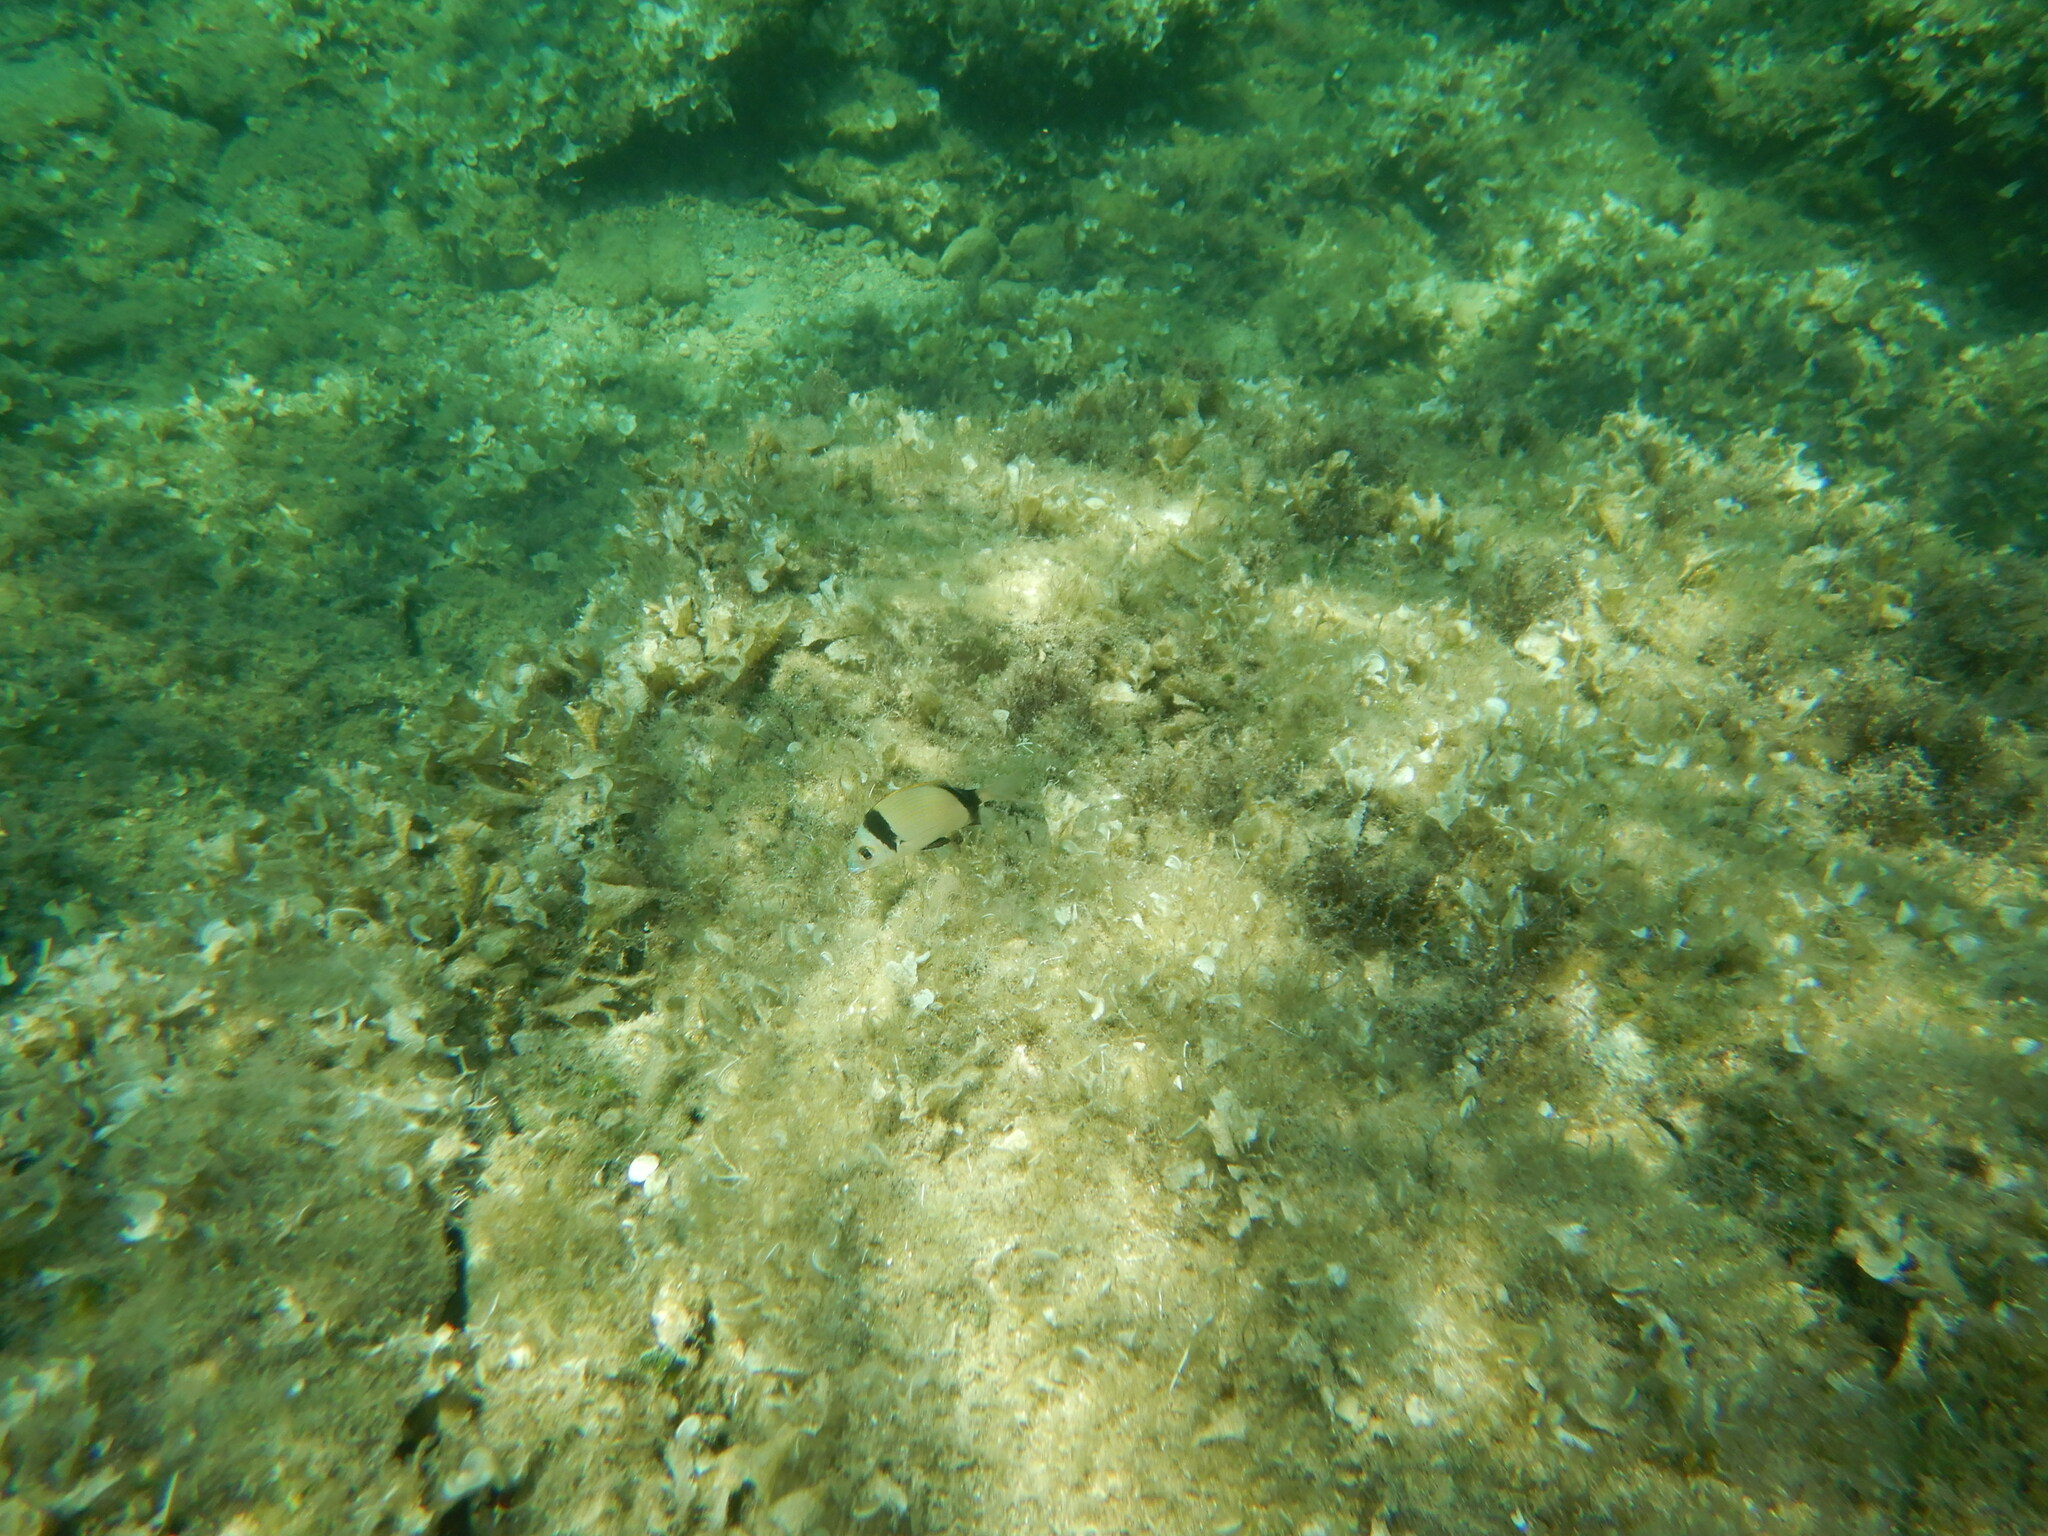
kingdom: Animalia
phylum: Chordata
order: Perciformes
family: Sparidae
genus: Diplodus
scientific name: Diplodus vulgaris
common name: Common two-banded seabream
